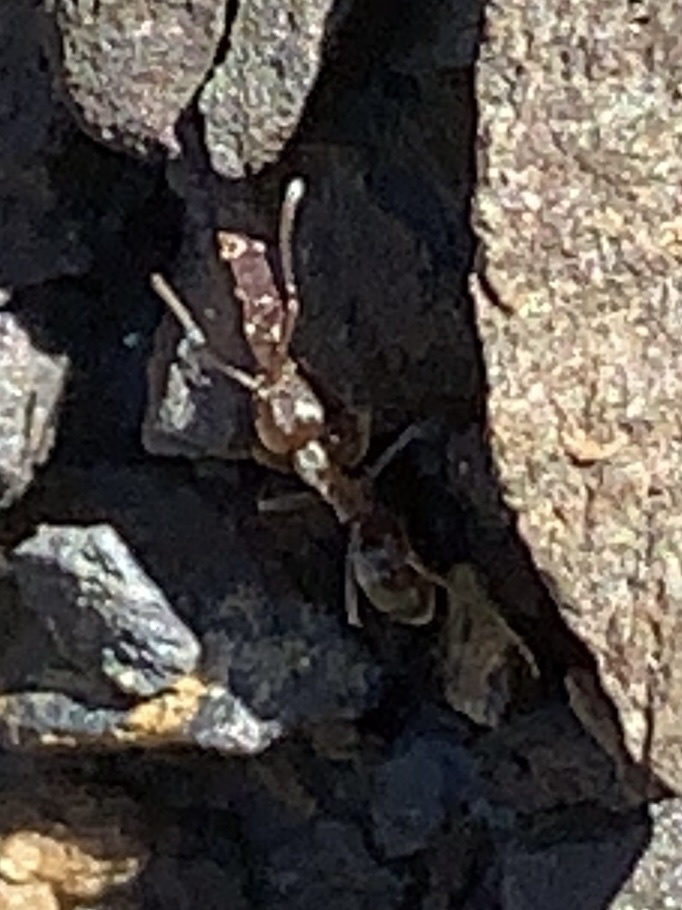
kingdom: Animalia
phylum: Arthropoda
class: Insecta
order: Hymenoptera
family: Formicidae
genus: Linepithema
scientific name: Linepithema humile
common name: Argentine ant
